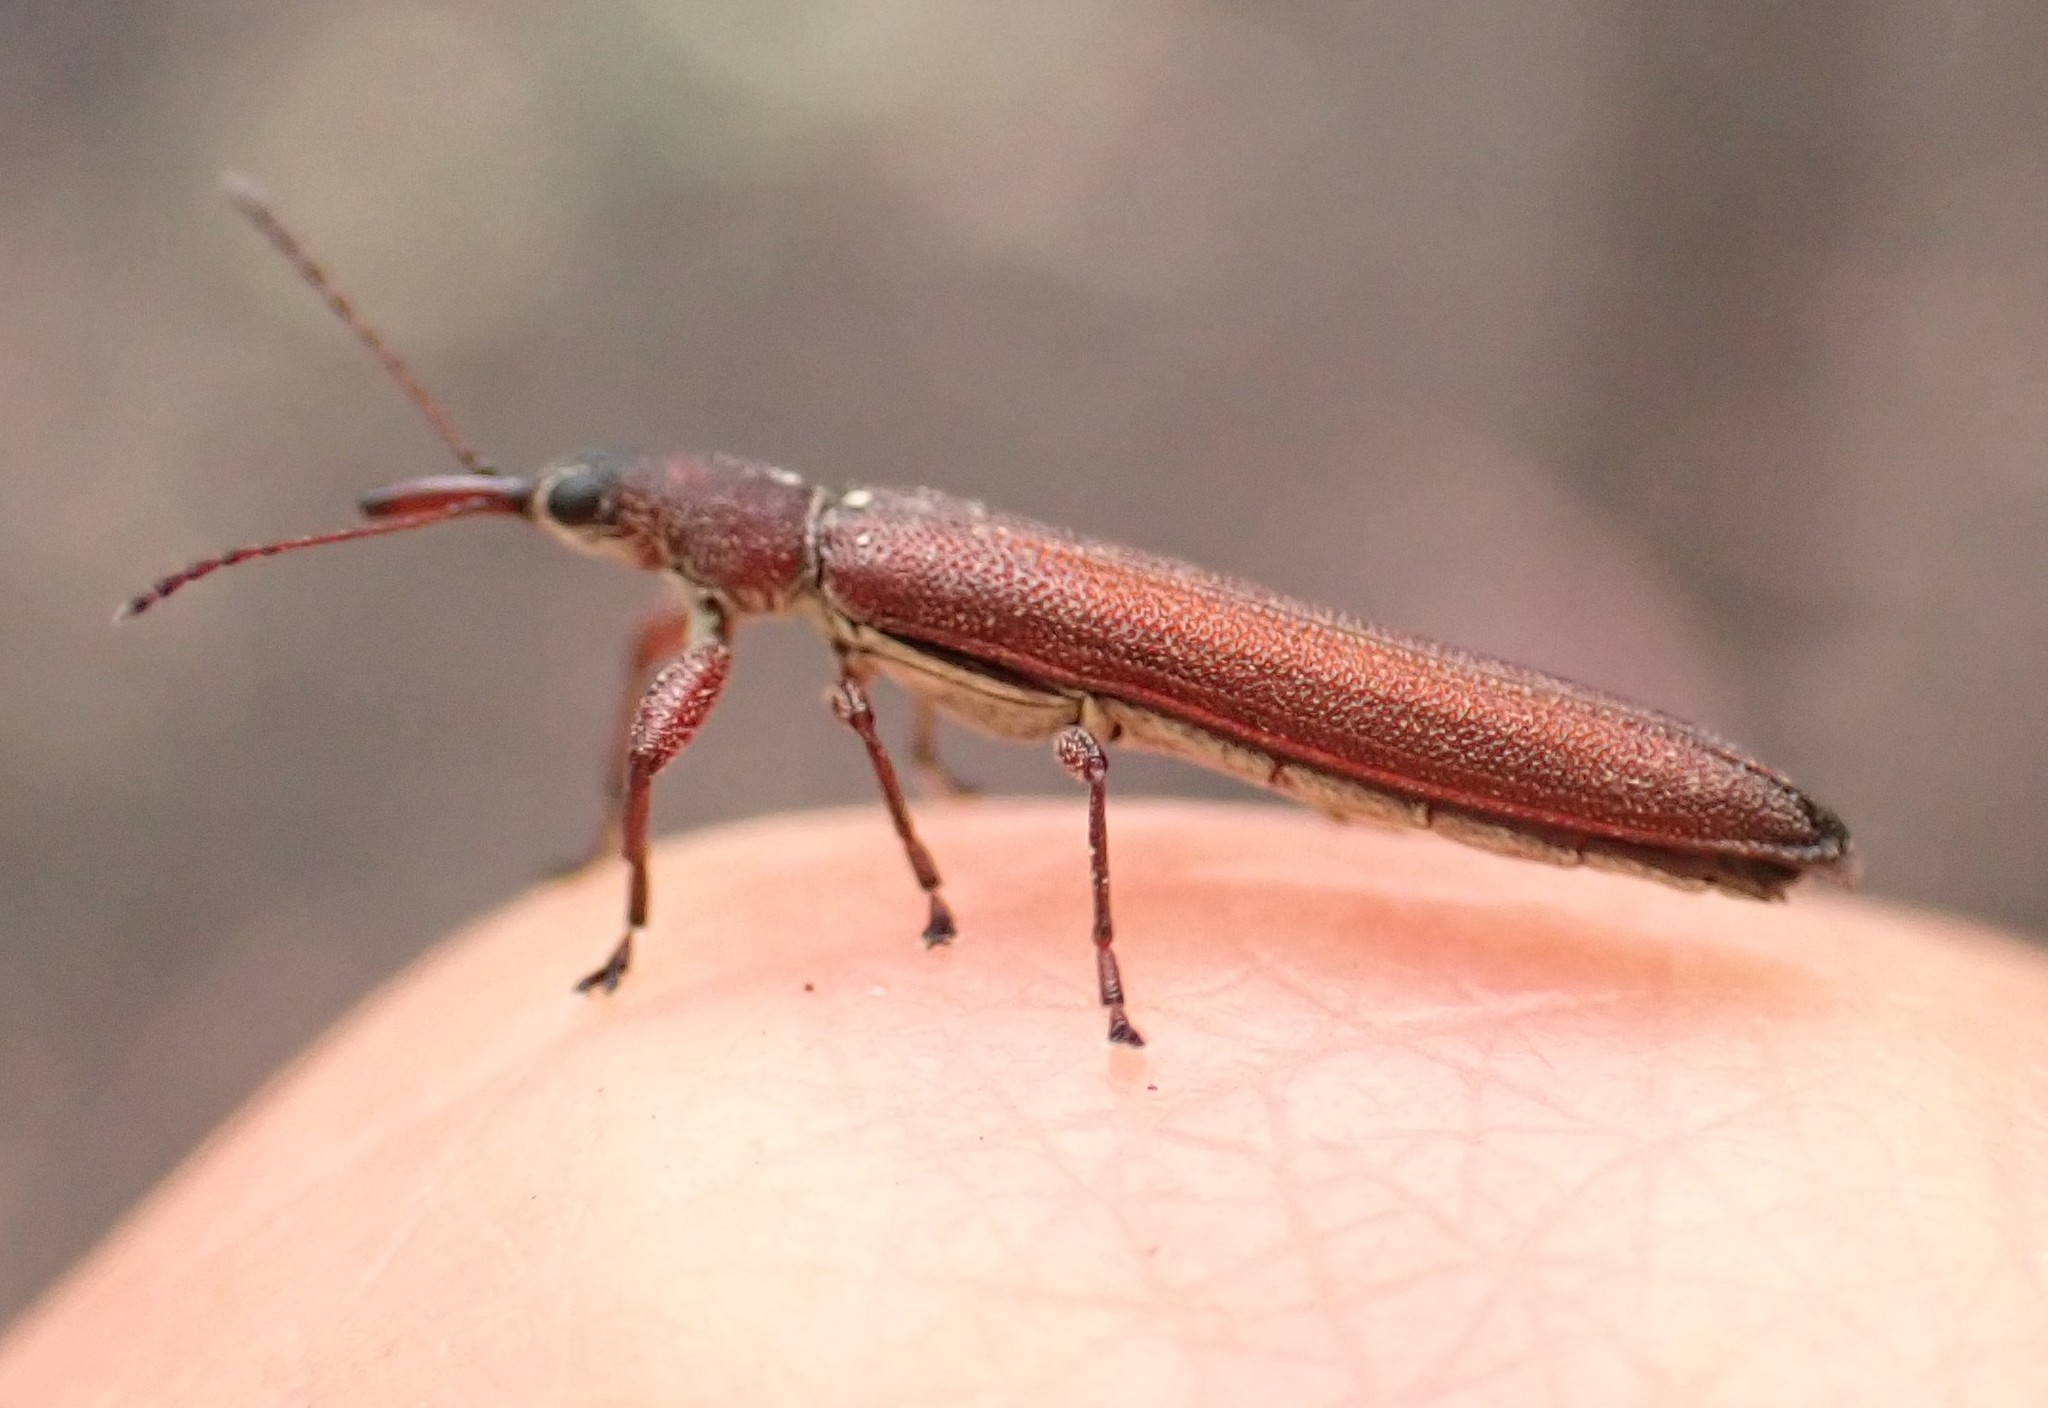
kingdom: Animalia
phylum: Arthropoda
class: Insecta
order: Coleoptera
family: Belidae
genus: Araiobelus
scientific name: Araiobelus acicularis
